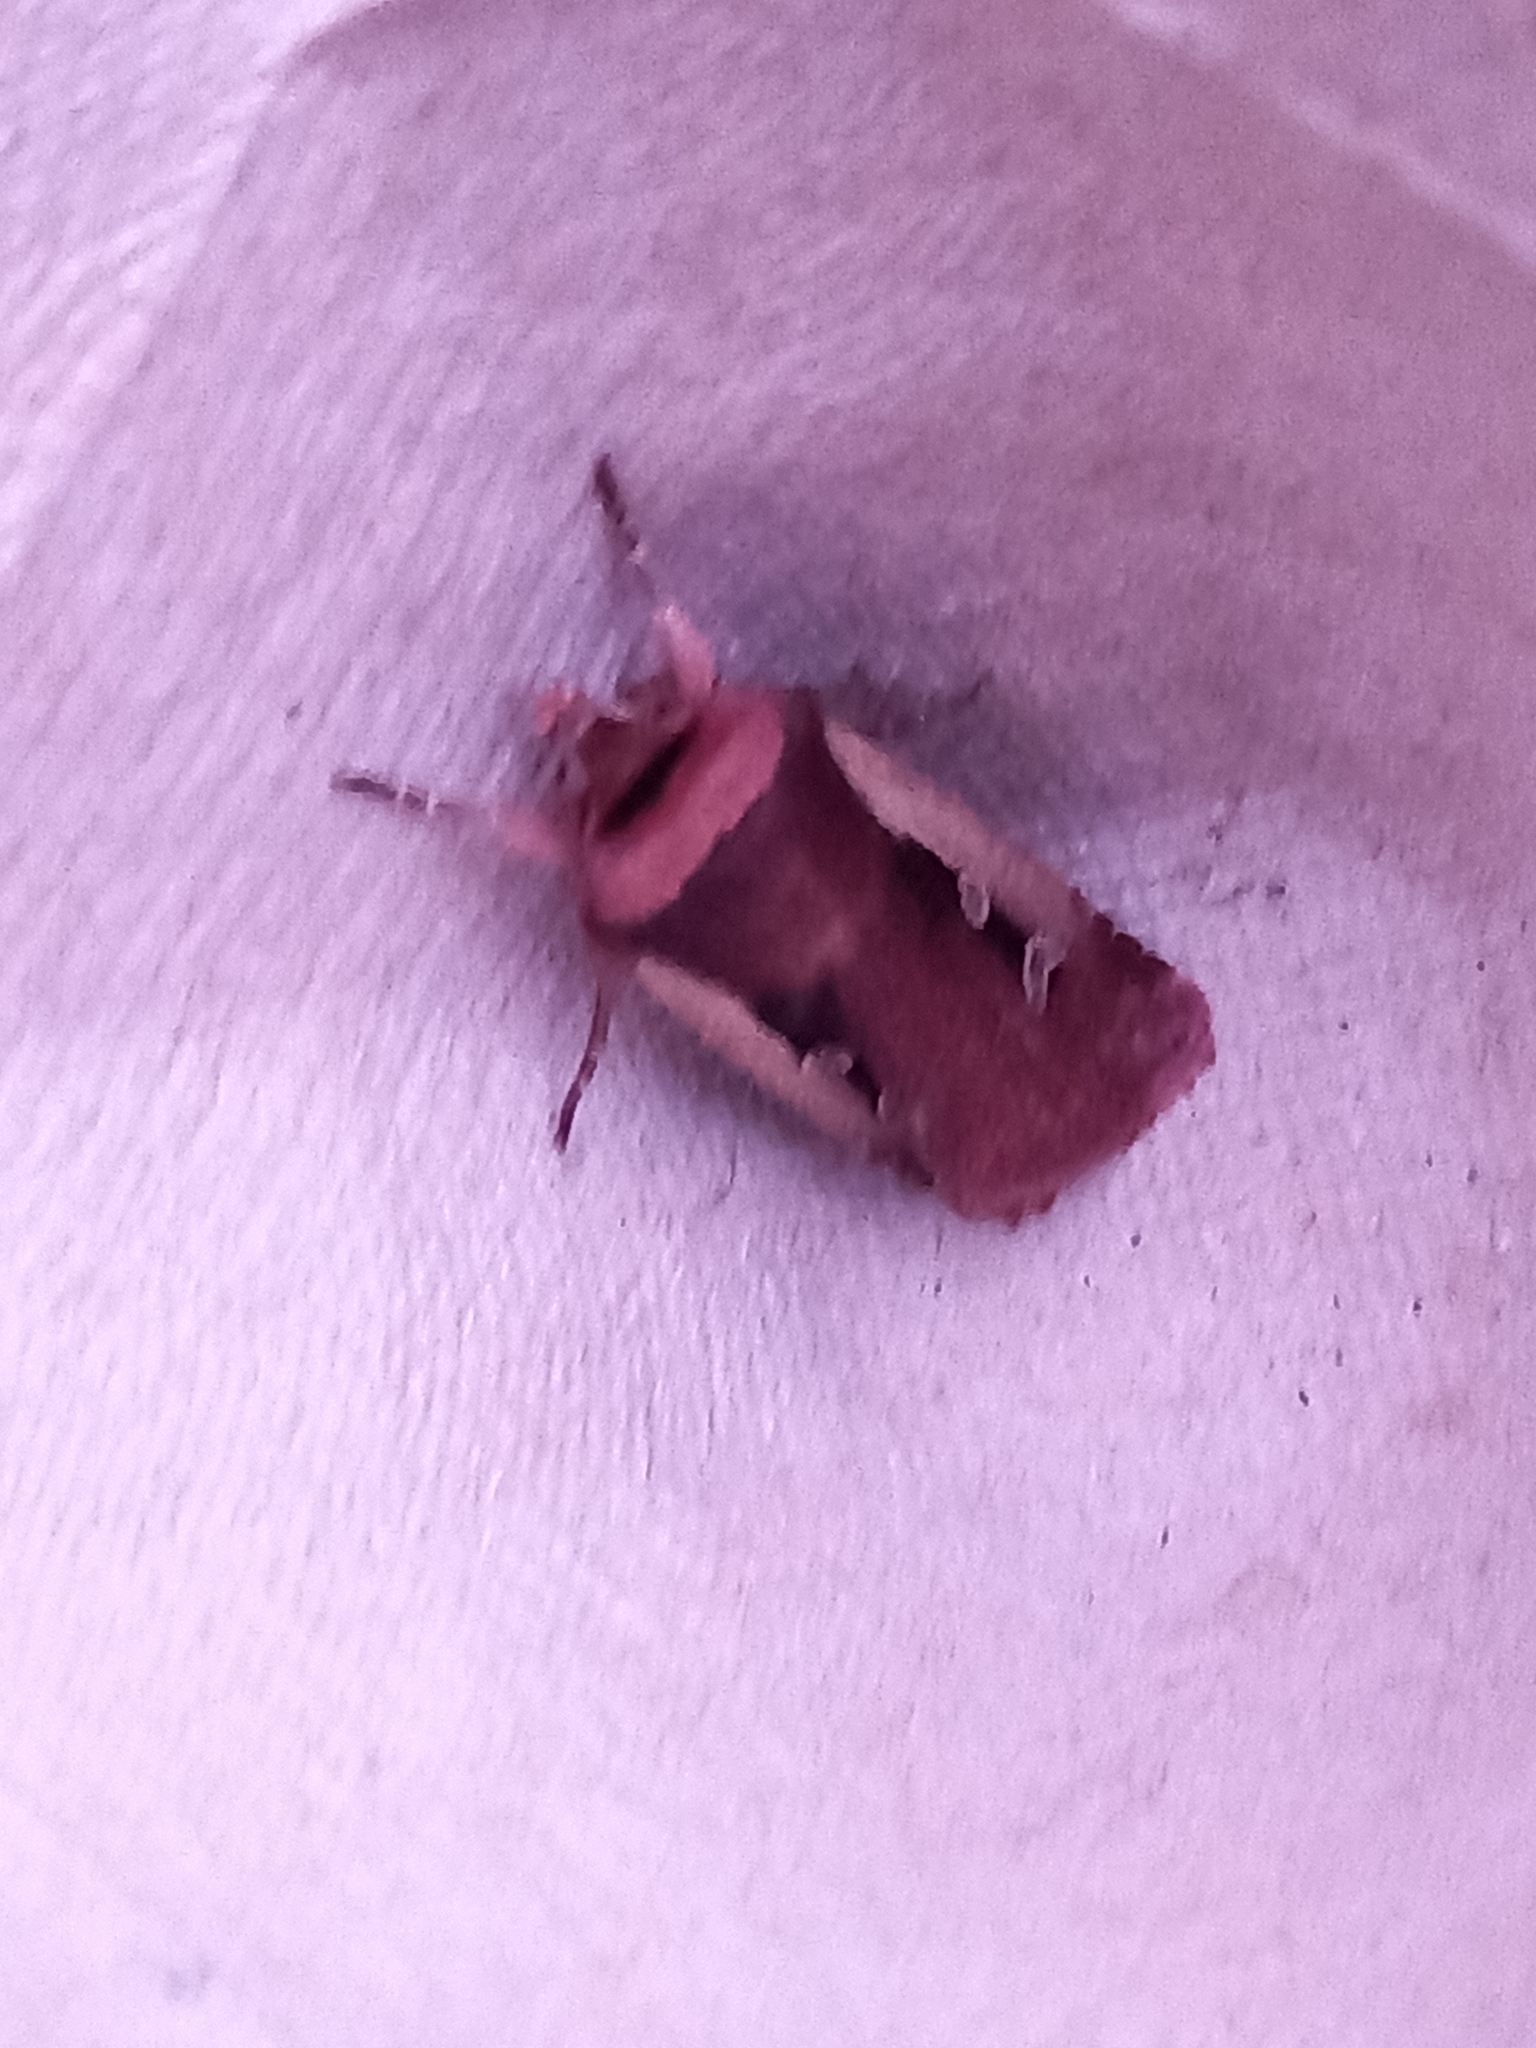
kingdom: Animalia
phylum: Arthropoda
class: Insecta
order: Lepidoptera
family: Noctuidae
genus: Ochropleura
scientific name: Ochropleura plecta
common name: Flame shoulder
